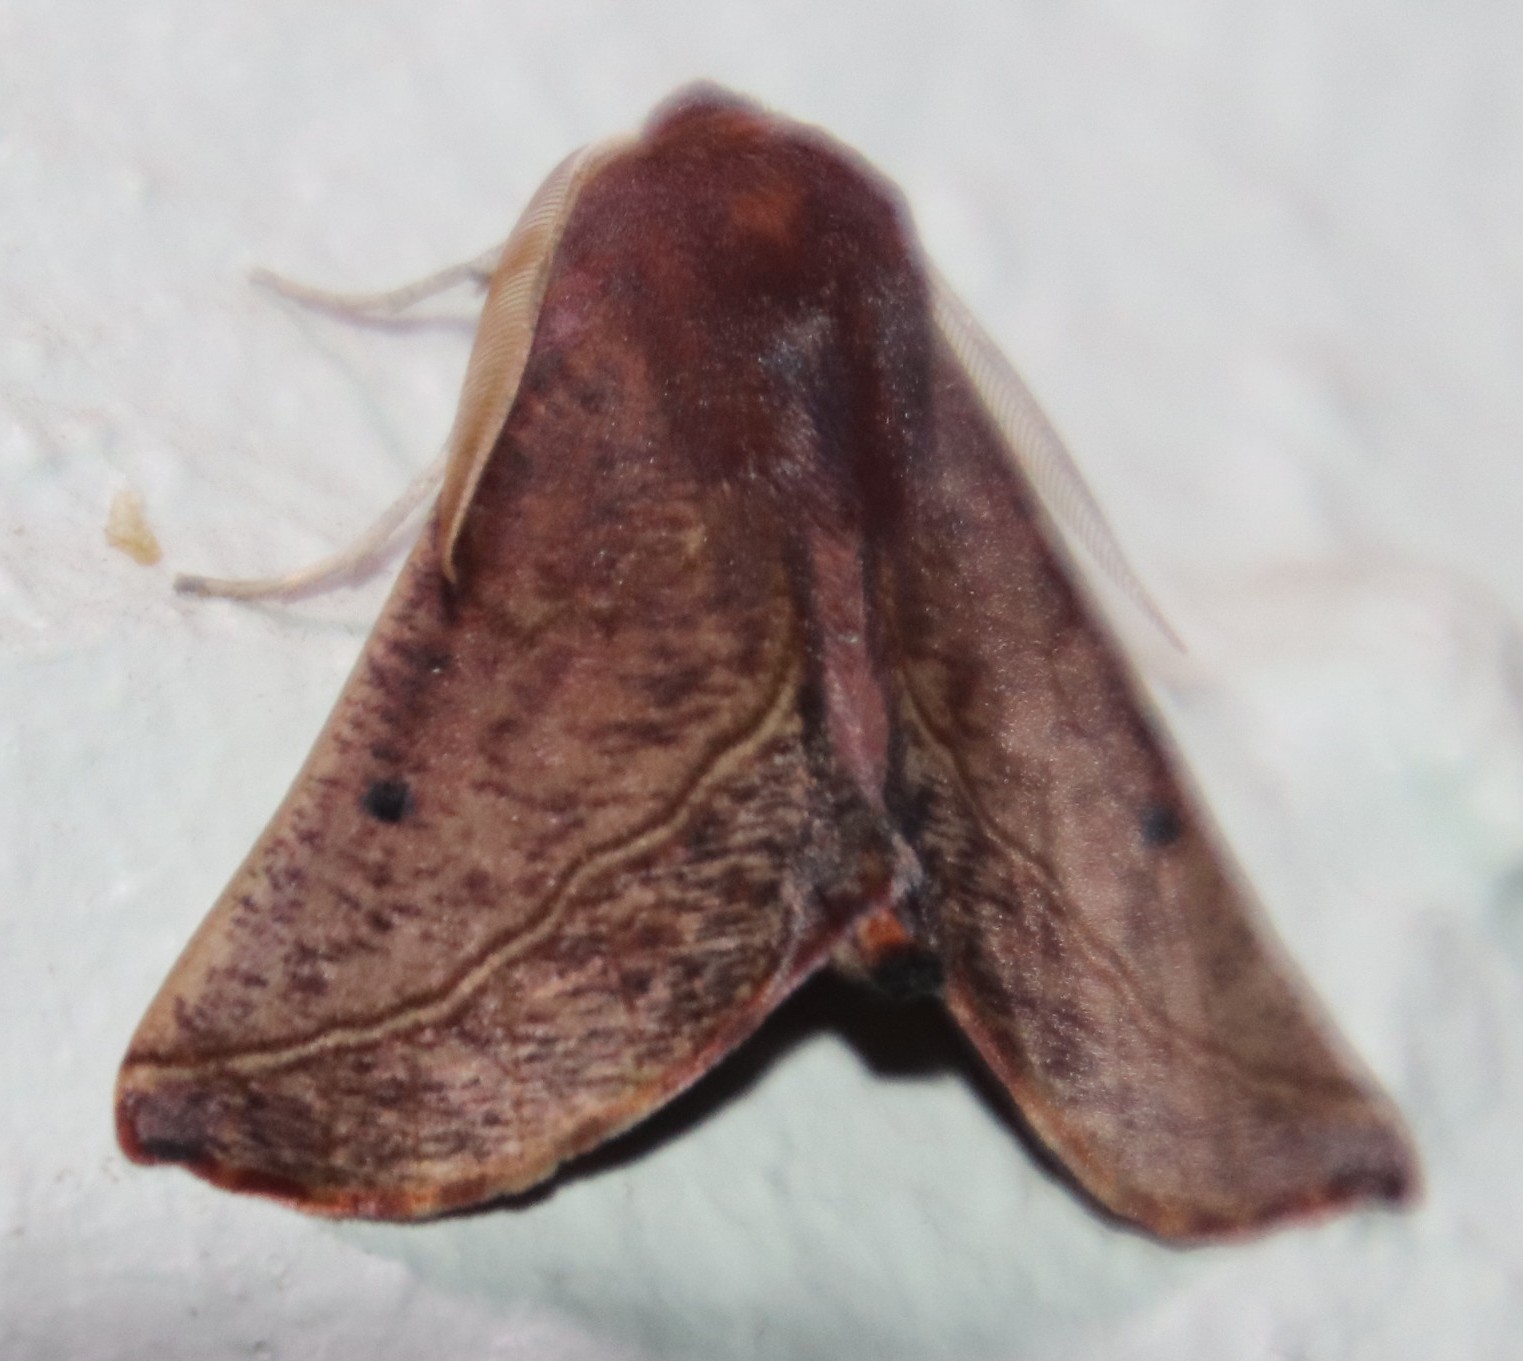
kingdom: Animalia
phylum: Arthropoda
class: Insecta
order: Lepidoptera
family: Geometridae
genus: Derrioides
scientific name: Derrioides villaria
